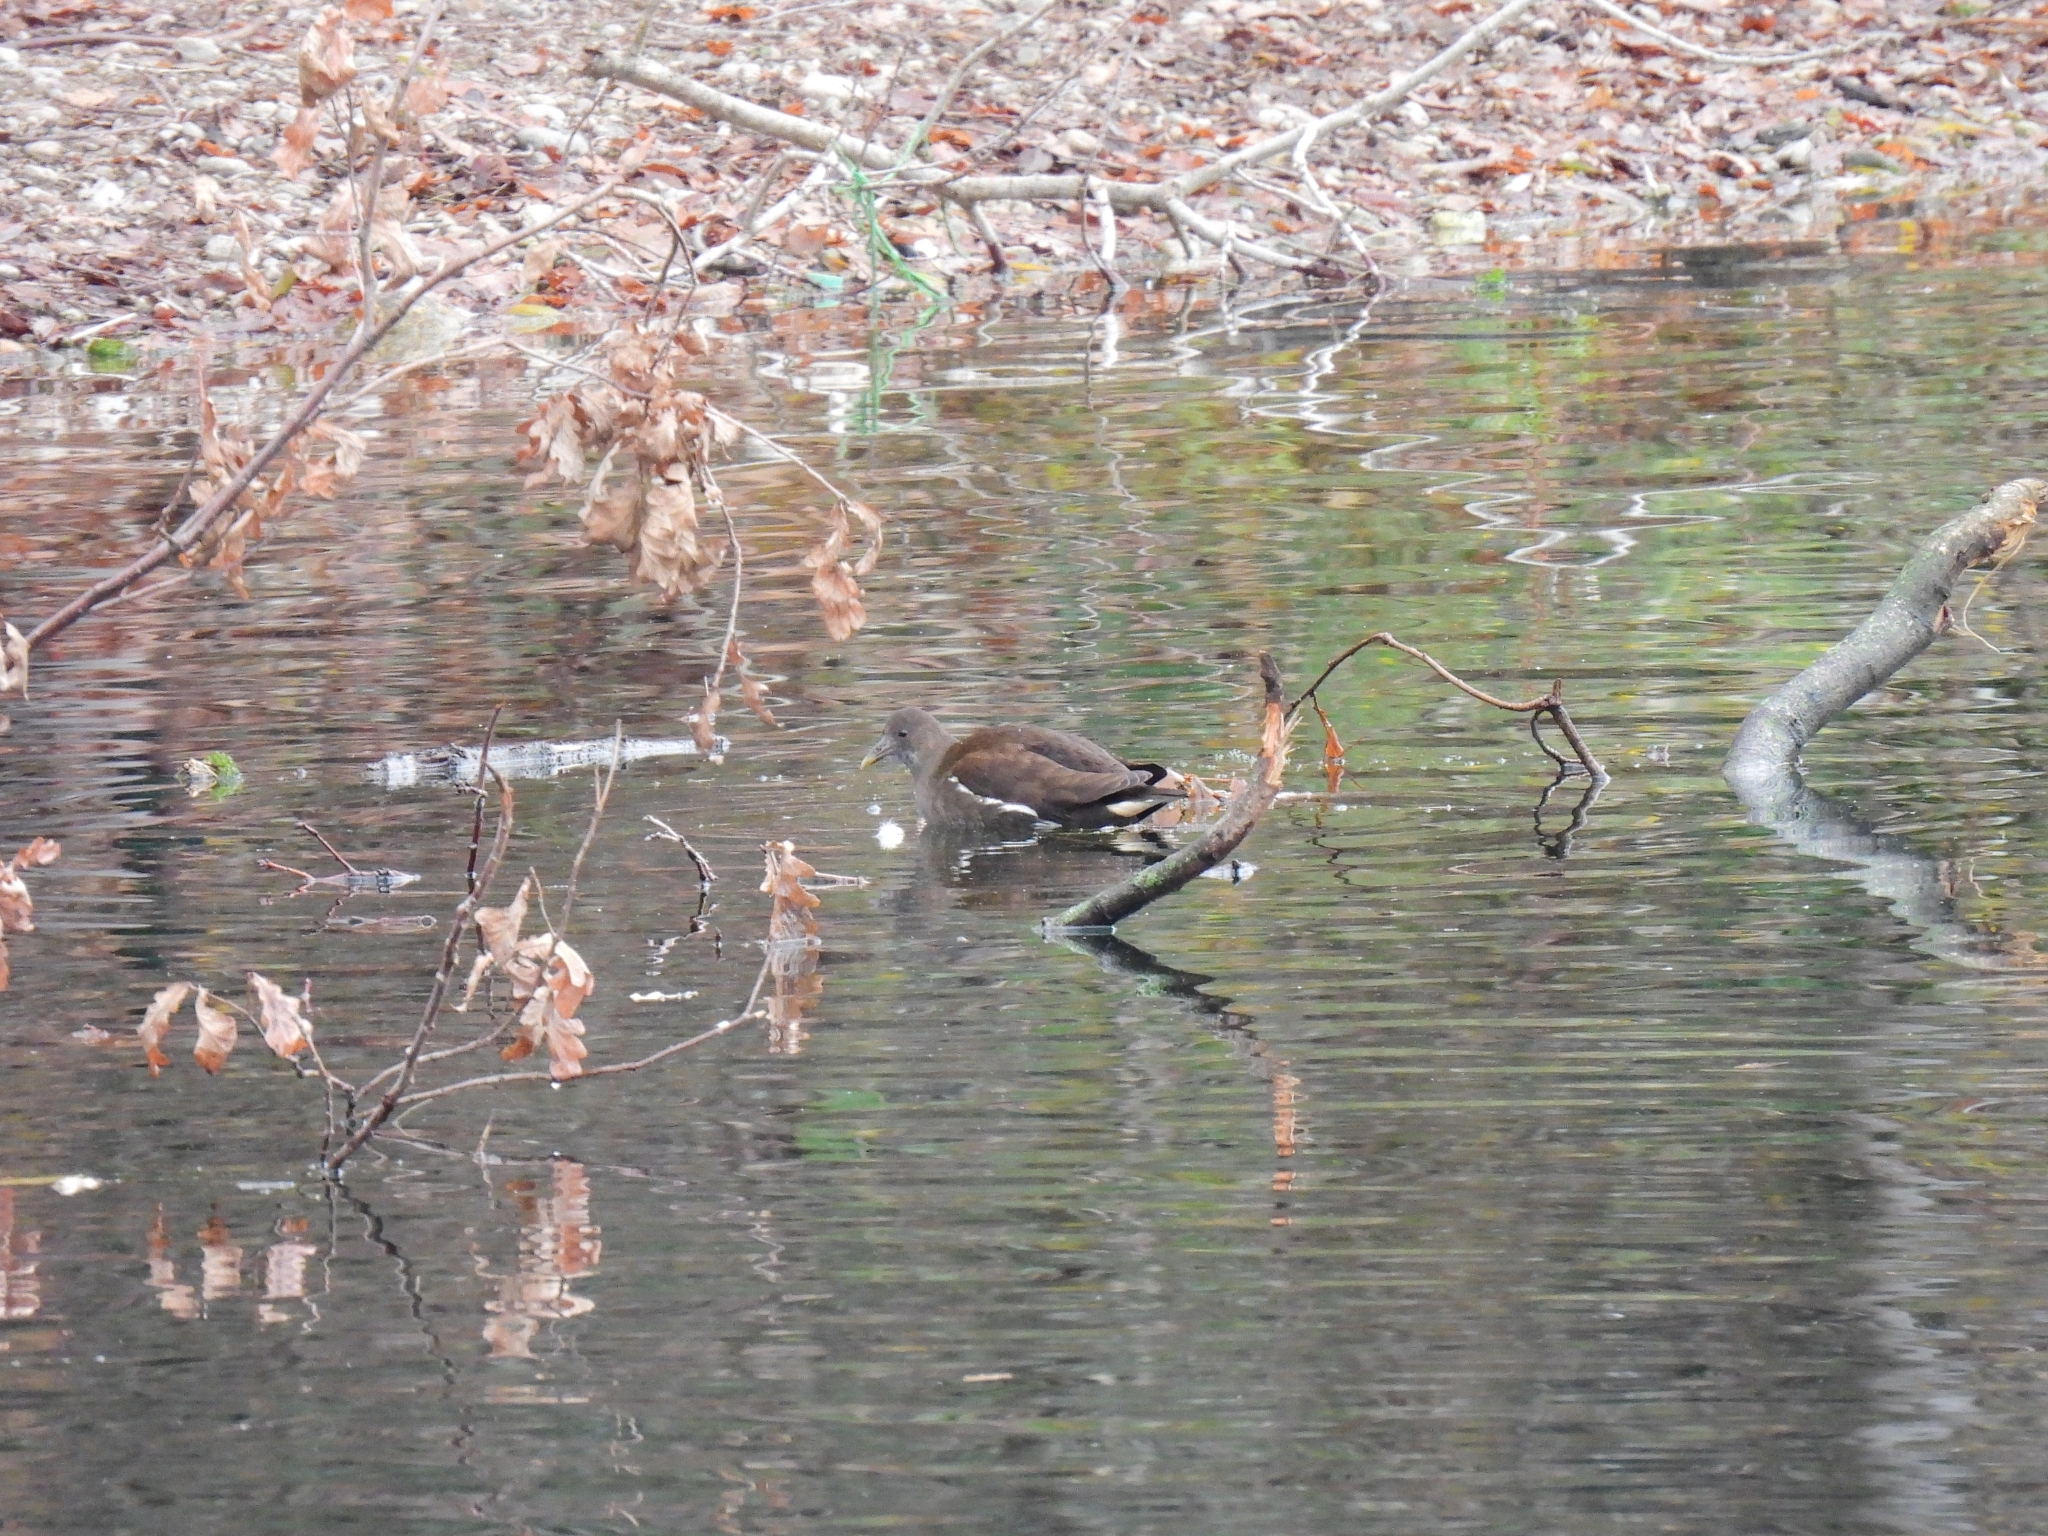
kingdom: Animalia
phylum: Chordata
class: Aves
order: Gruiformes
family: Rallidae
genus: Gallinula
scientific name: Gallinula chloropus
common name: Common moorhen
